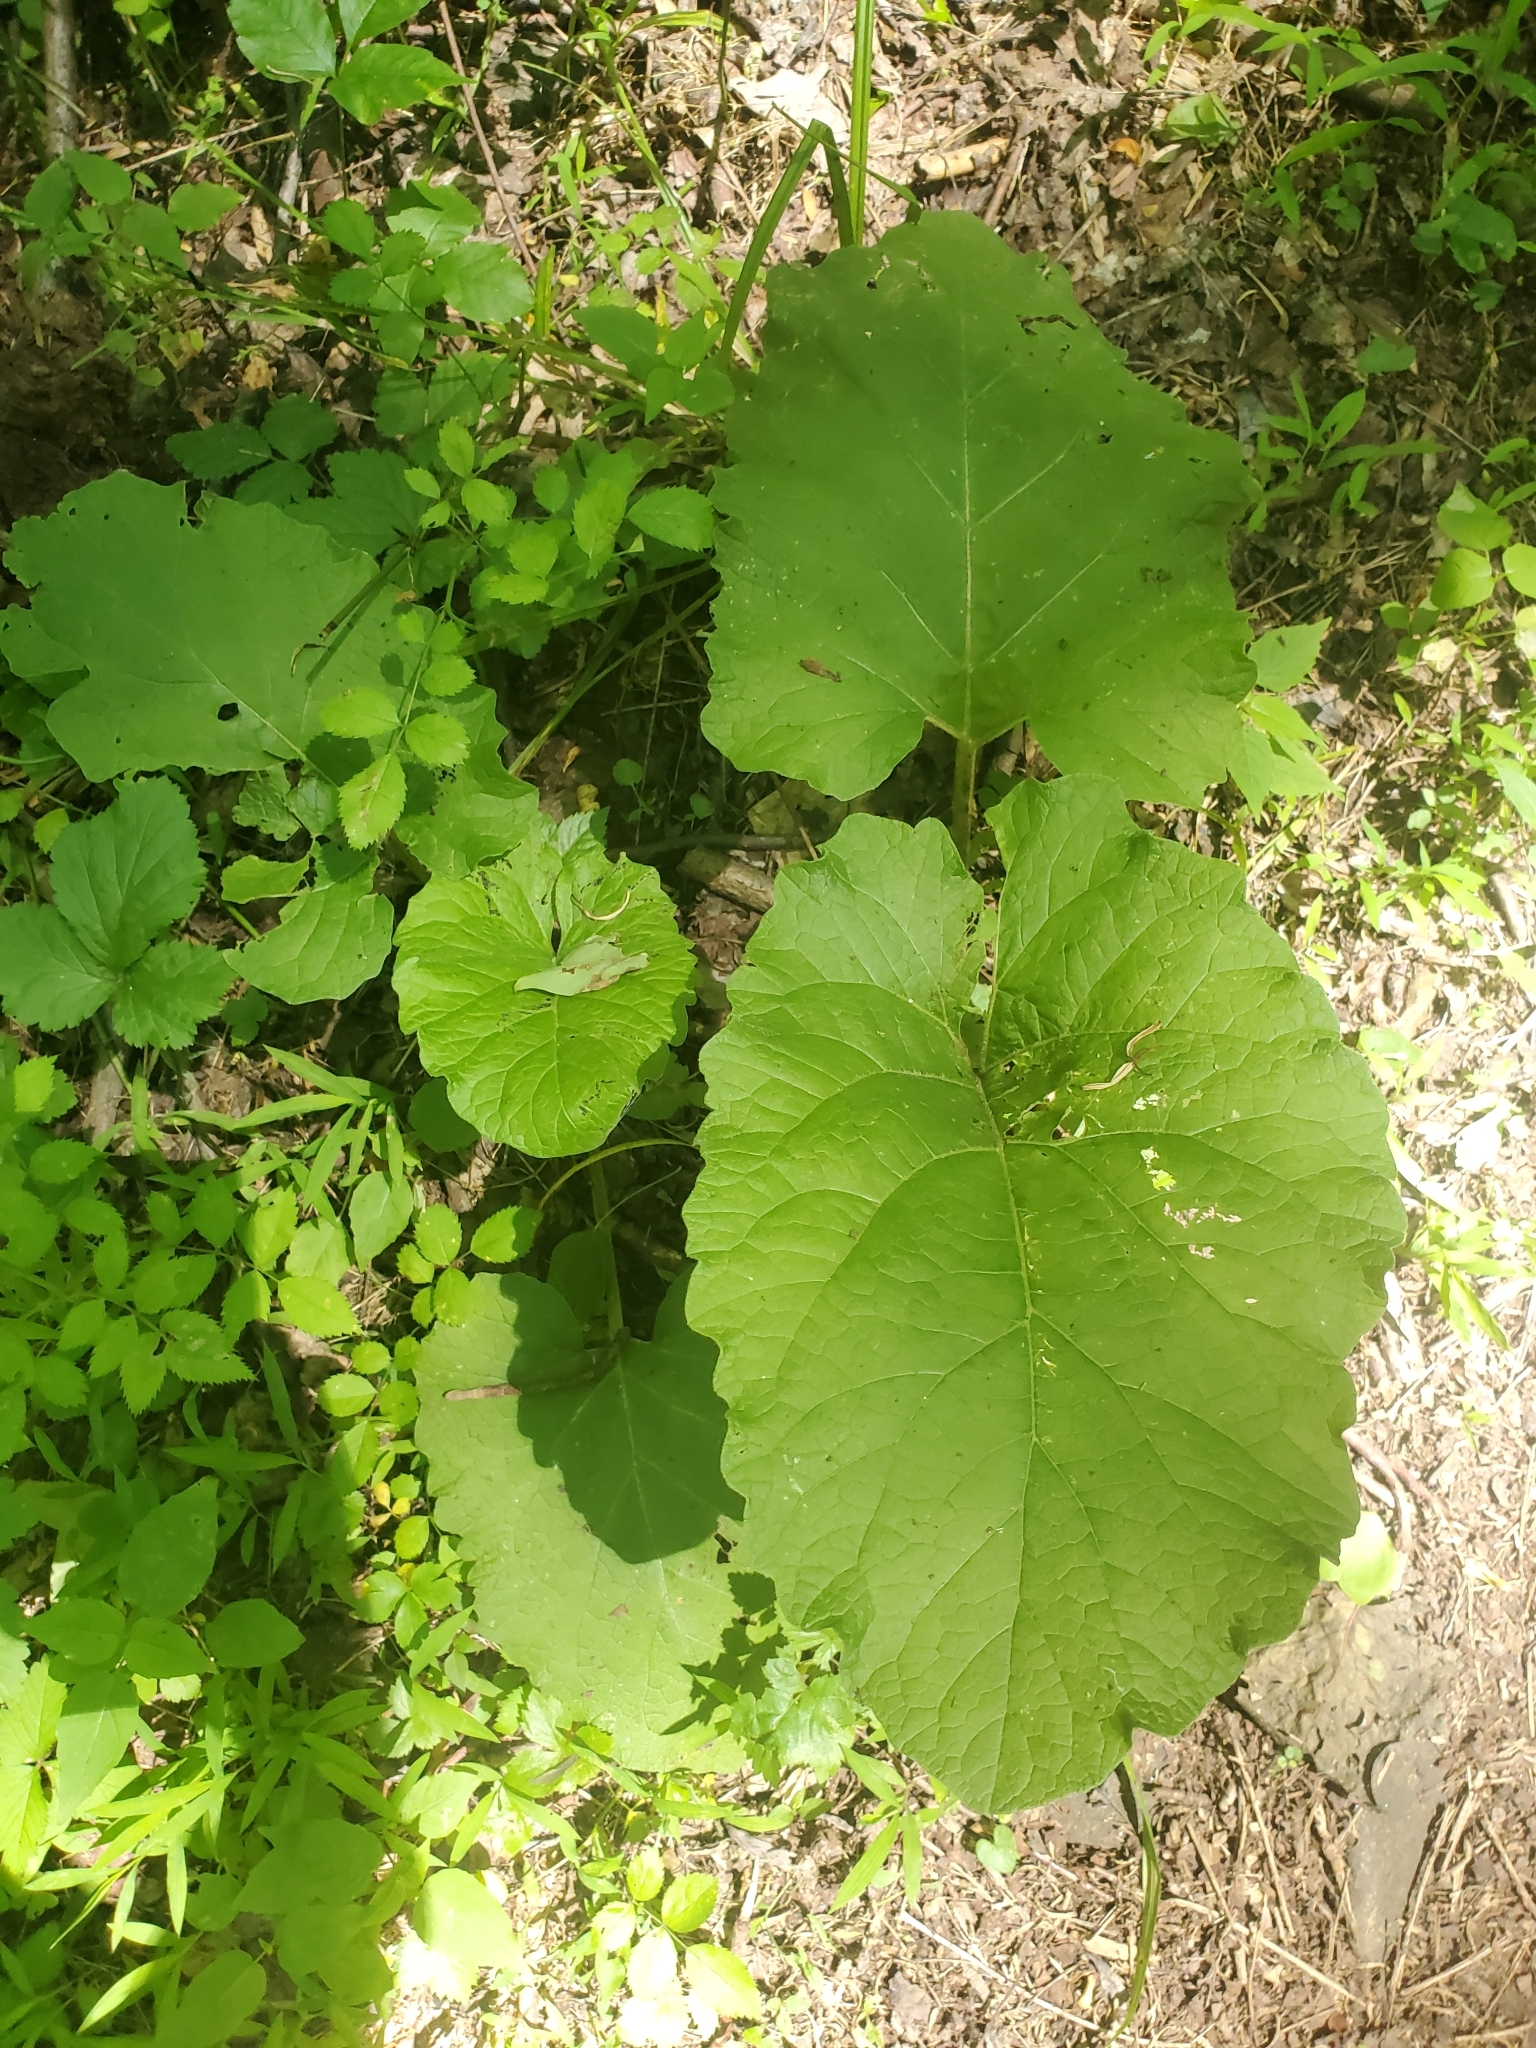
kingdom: Plantae
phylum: Tracheophyta
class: Magnoliopsida
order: Asterales
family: Asteraceae
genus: Arctium
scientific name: Arctium
